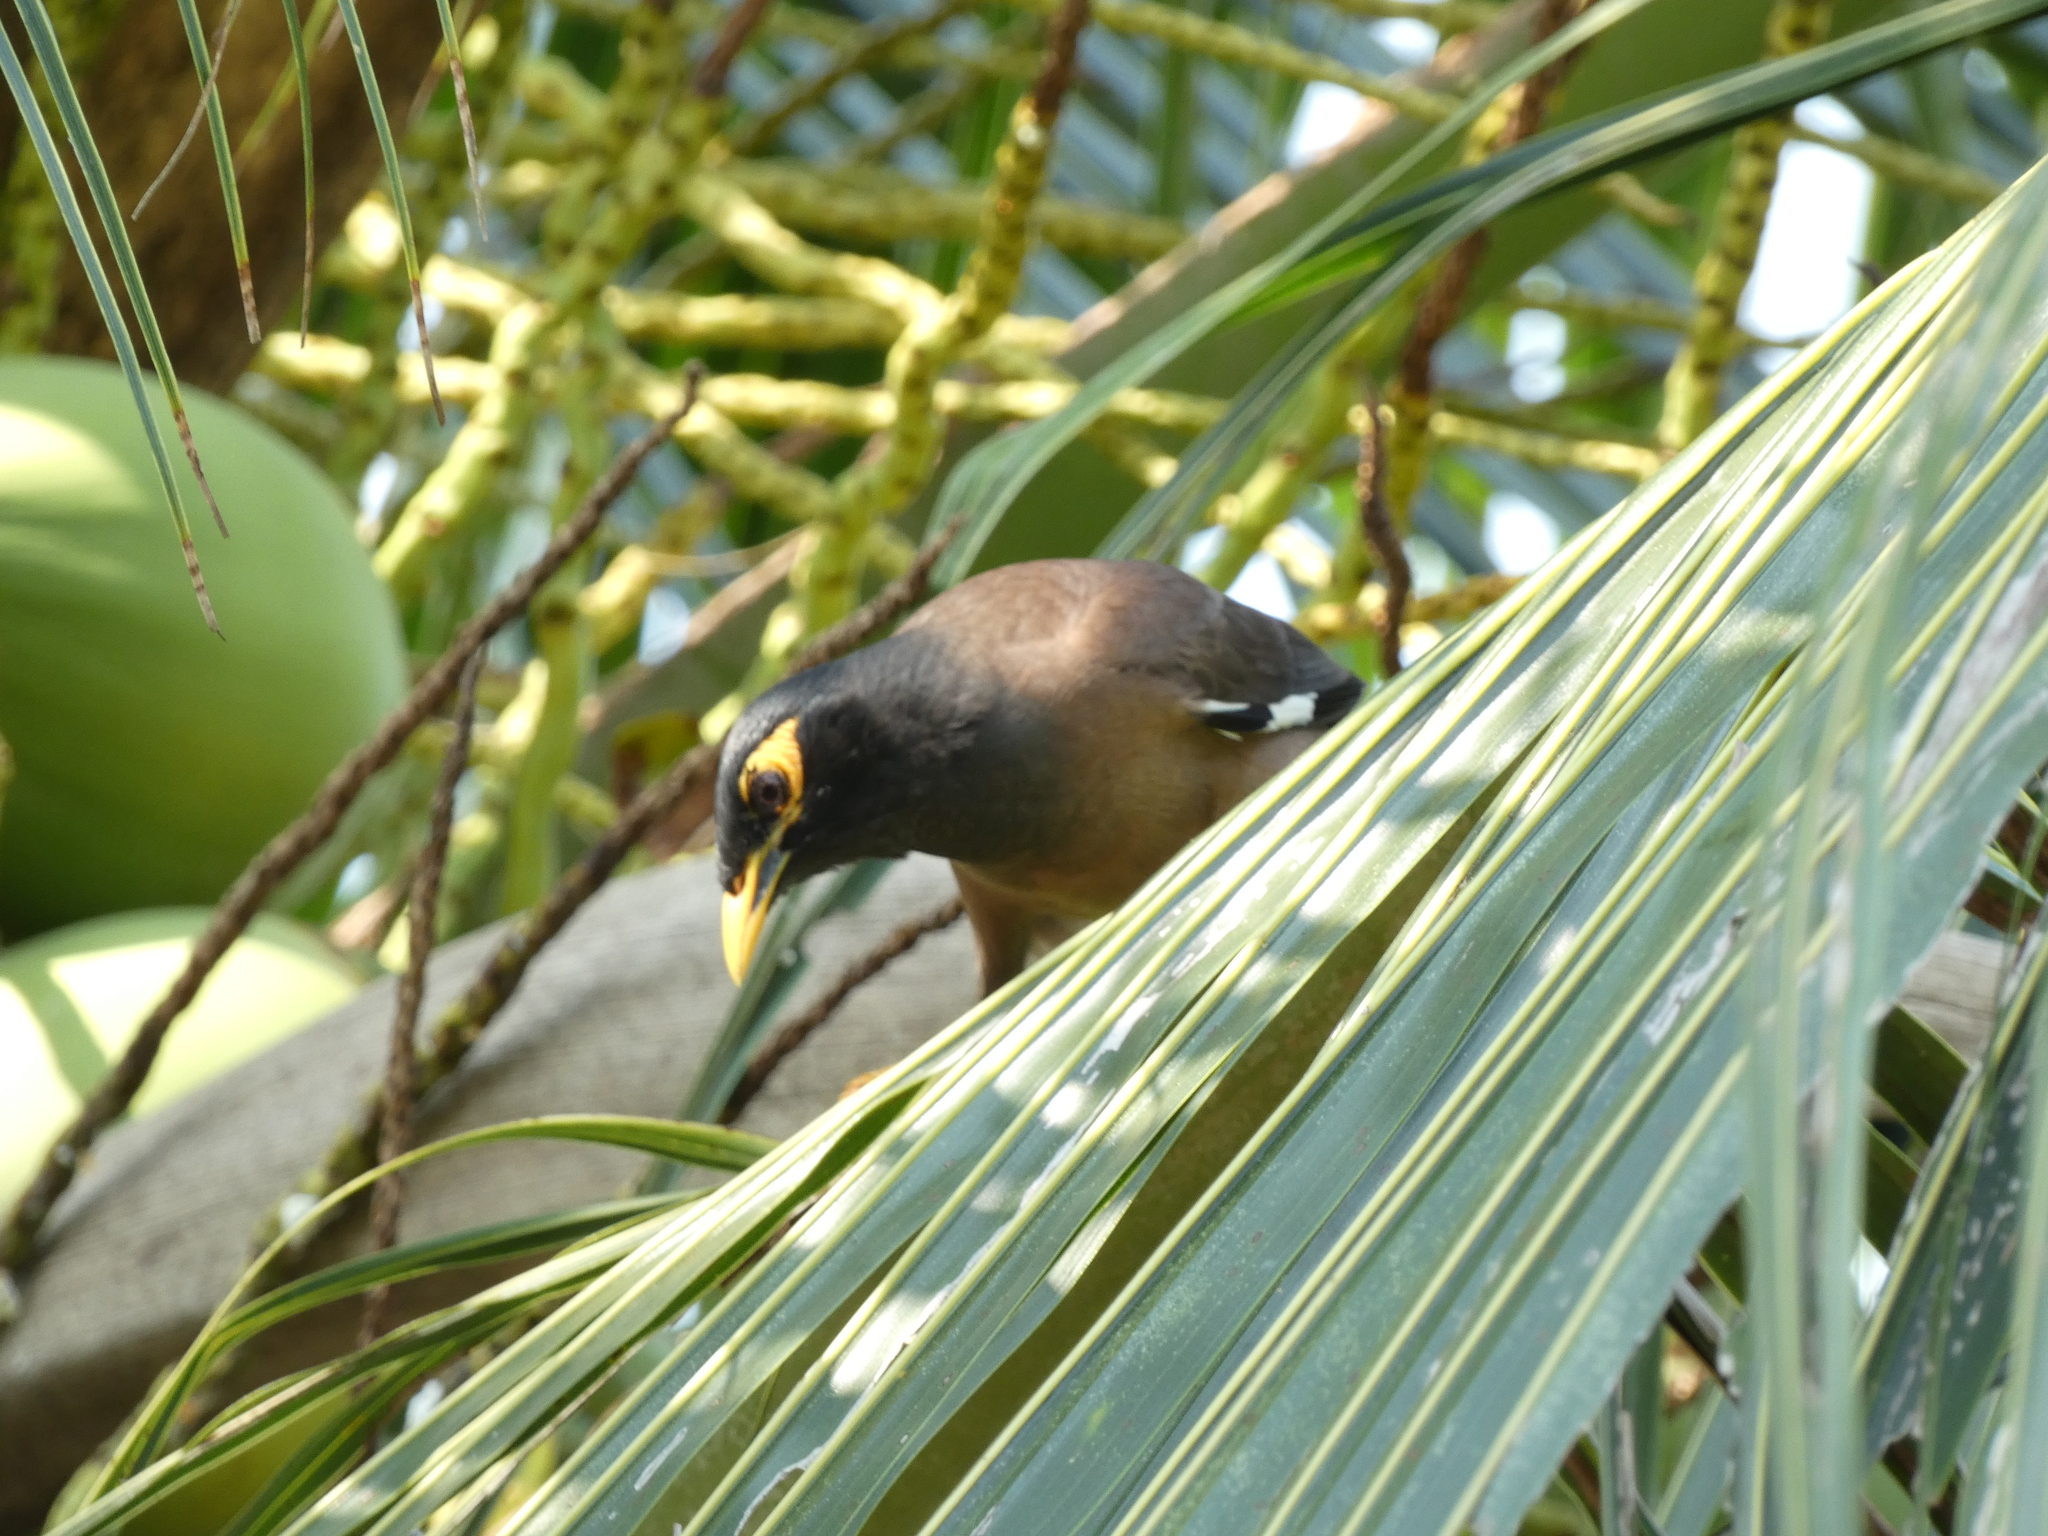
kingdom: Animalia
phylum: Chordata
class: Aves
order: Passeriformes
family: Sturnidae
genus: Acridotheres
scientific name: Acridotheres tristis
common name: Common myna
